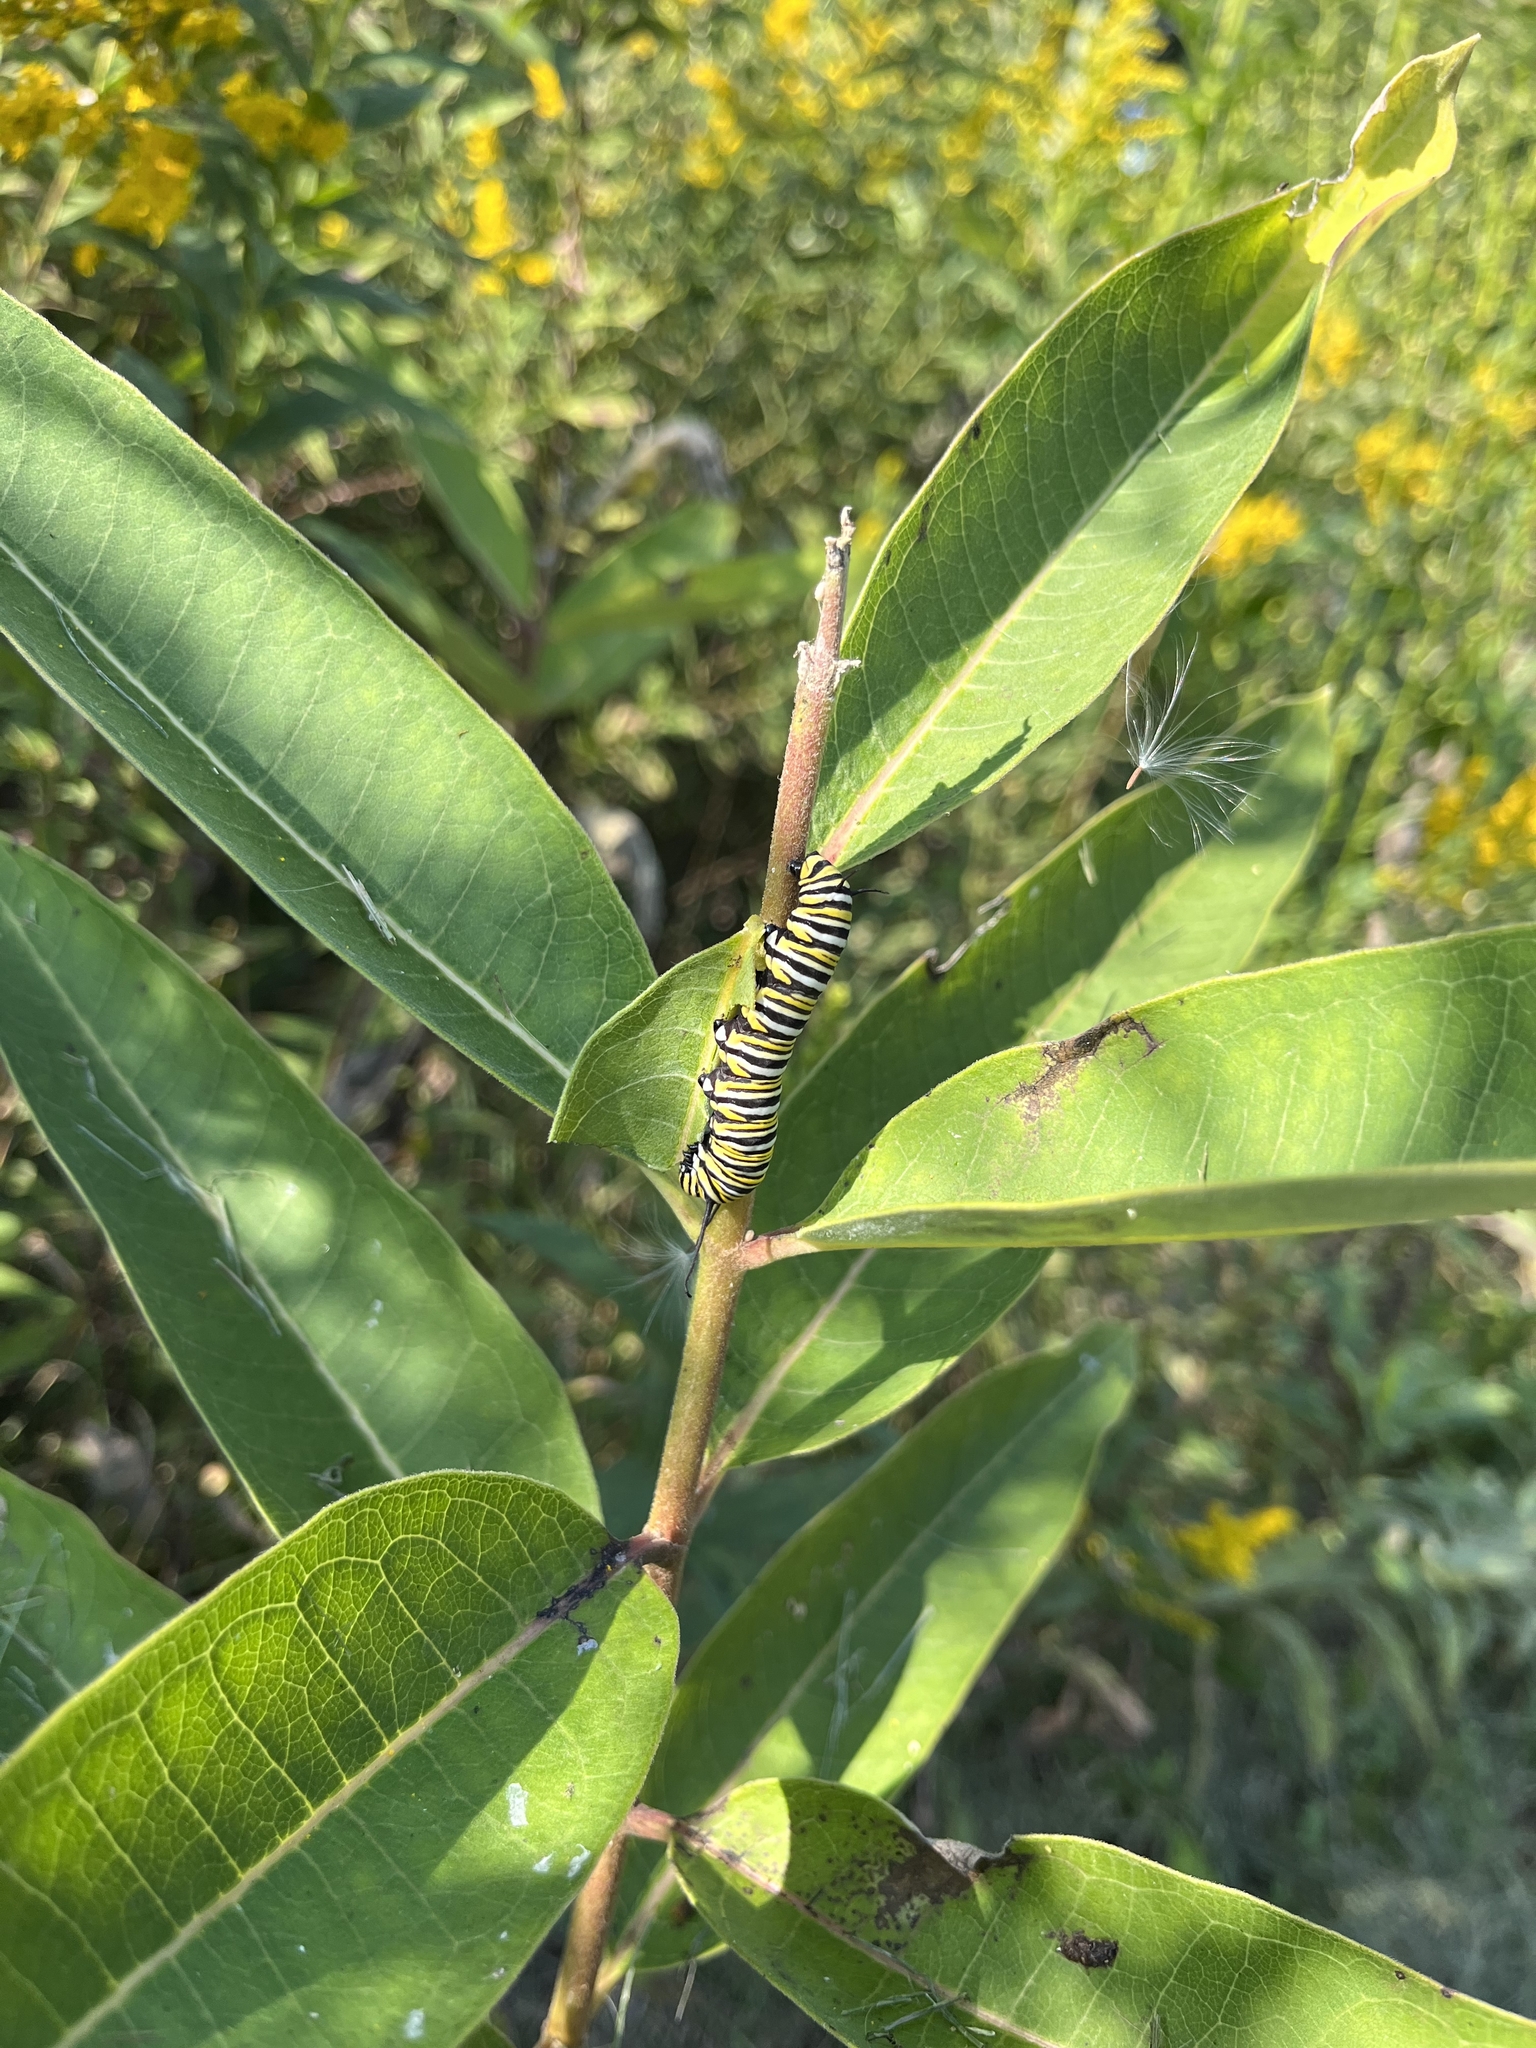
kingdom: Animalia
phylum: Arthropoda
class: Insecta
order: Lepidoptera
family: Nymphalidae
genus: Danaus
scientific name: Danaus plexippus
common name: Monarch
